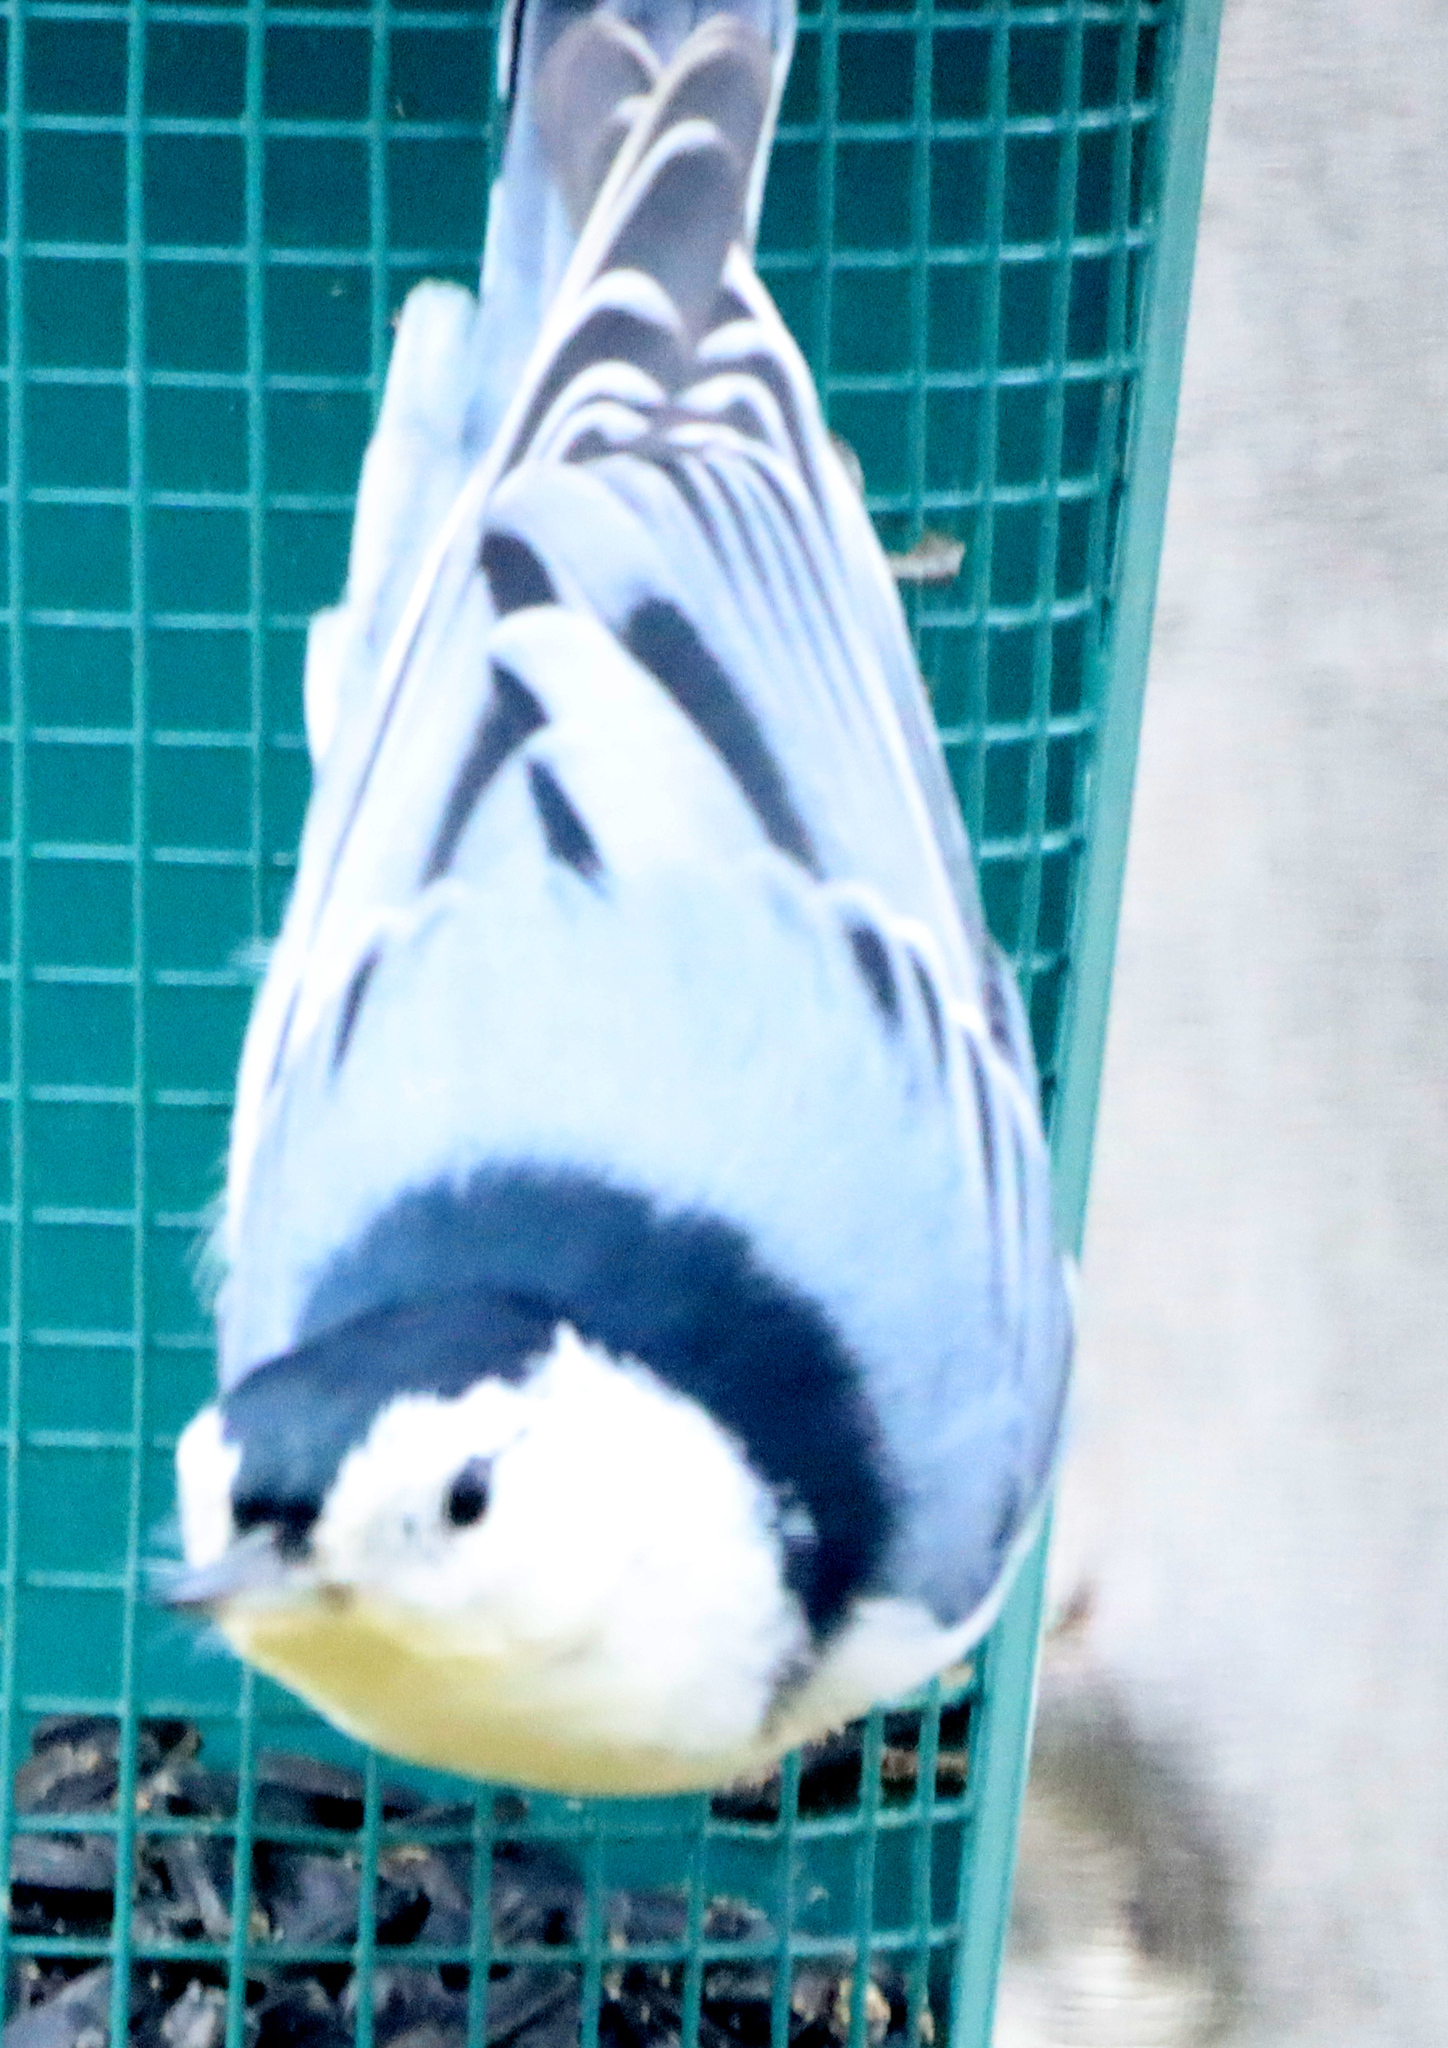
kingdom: Animalia
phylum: Chordata
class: Aves
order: Passeriformes
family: Sittidae
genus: Sitta
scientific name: Sitta carolinensis
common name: White-breasted nuthatch
